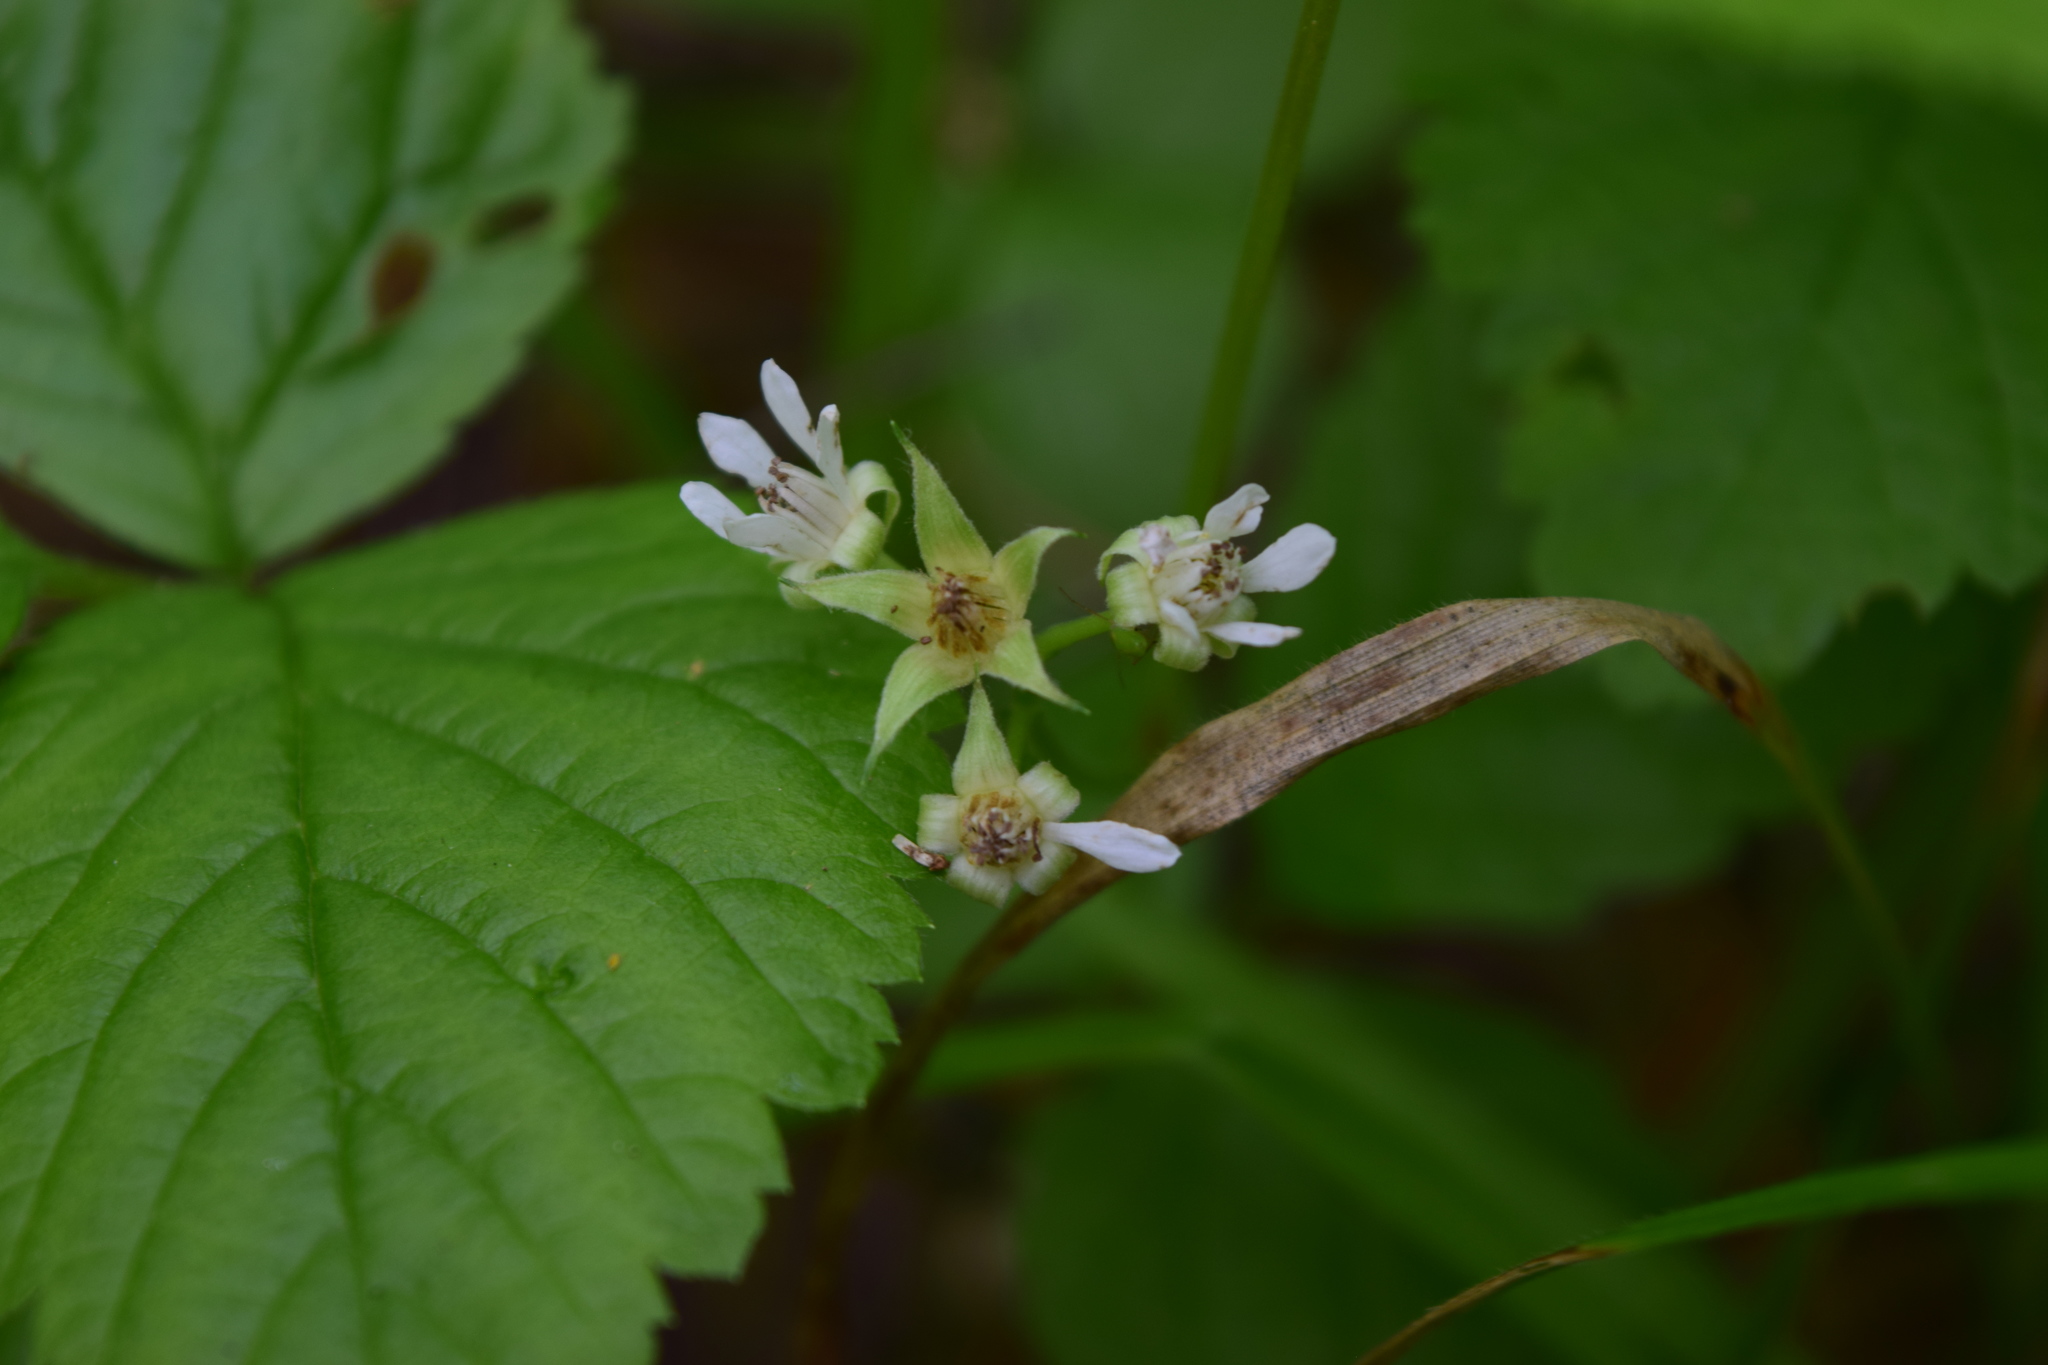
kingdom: Plantae
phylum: Tracheophyta
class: Magnoliopsida
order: Rosales
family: Rosaceae
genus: Rubus
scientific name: Rubus saxatilis
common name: Stone bramble
